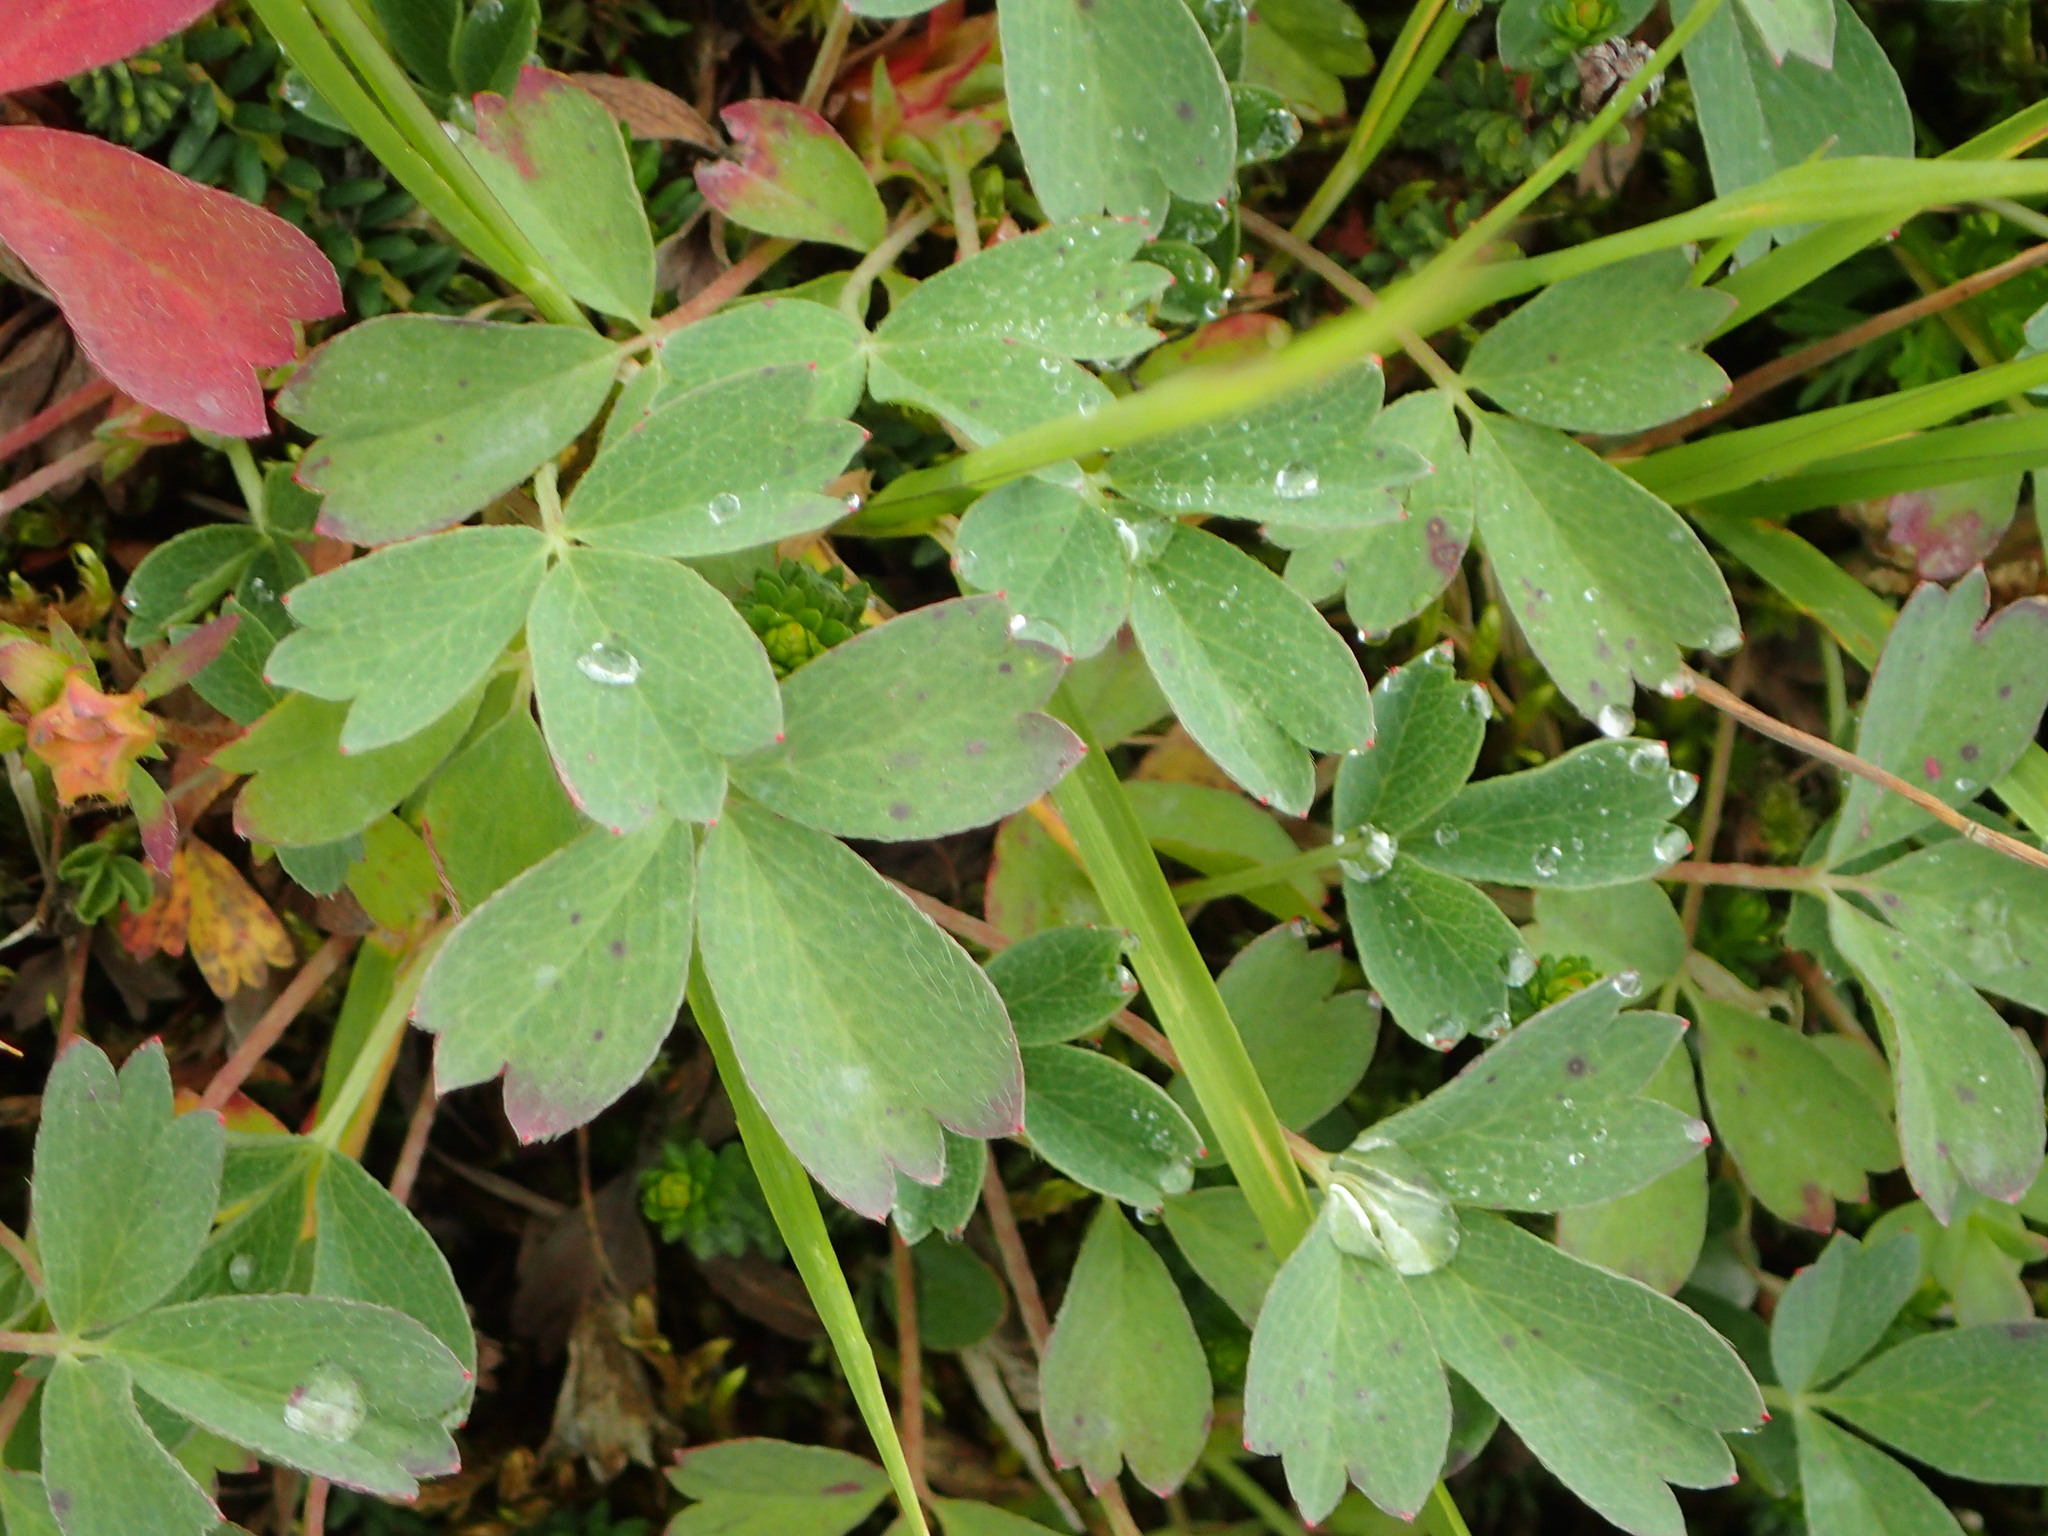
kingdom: Plantae
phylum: Tracheophyta
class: Magnoliopsida
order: Rosales
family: Rosaceae
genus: Sibbaldia
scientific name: Sibbaldia procumbens
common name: Creeping sibbaldia
